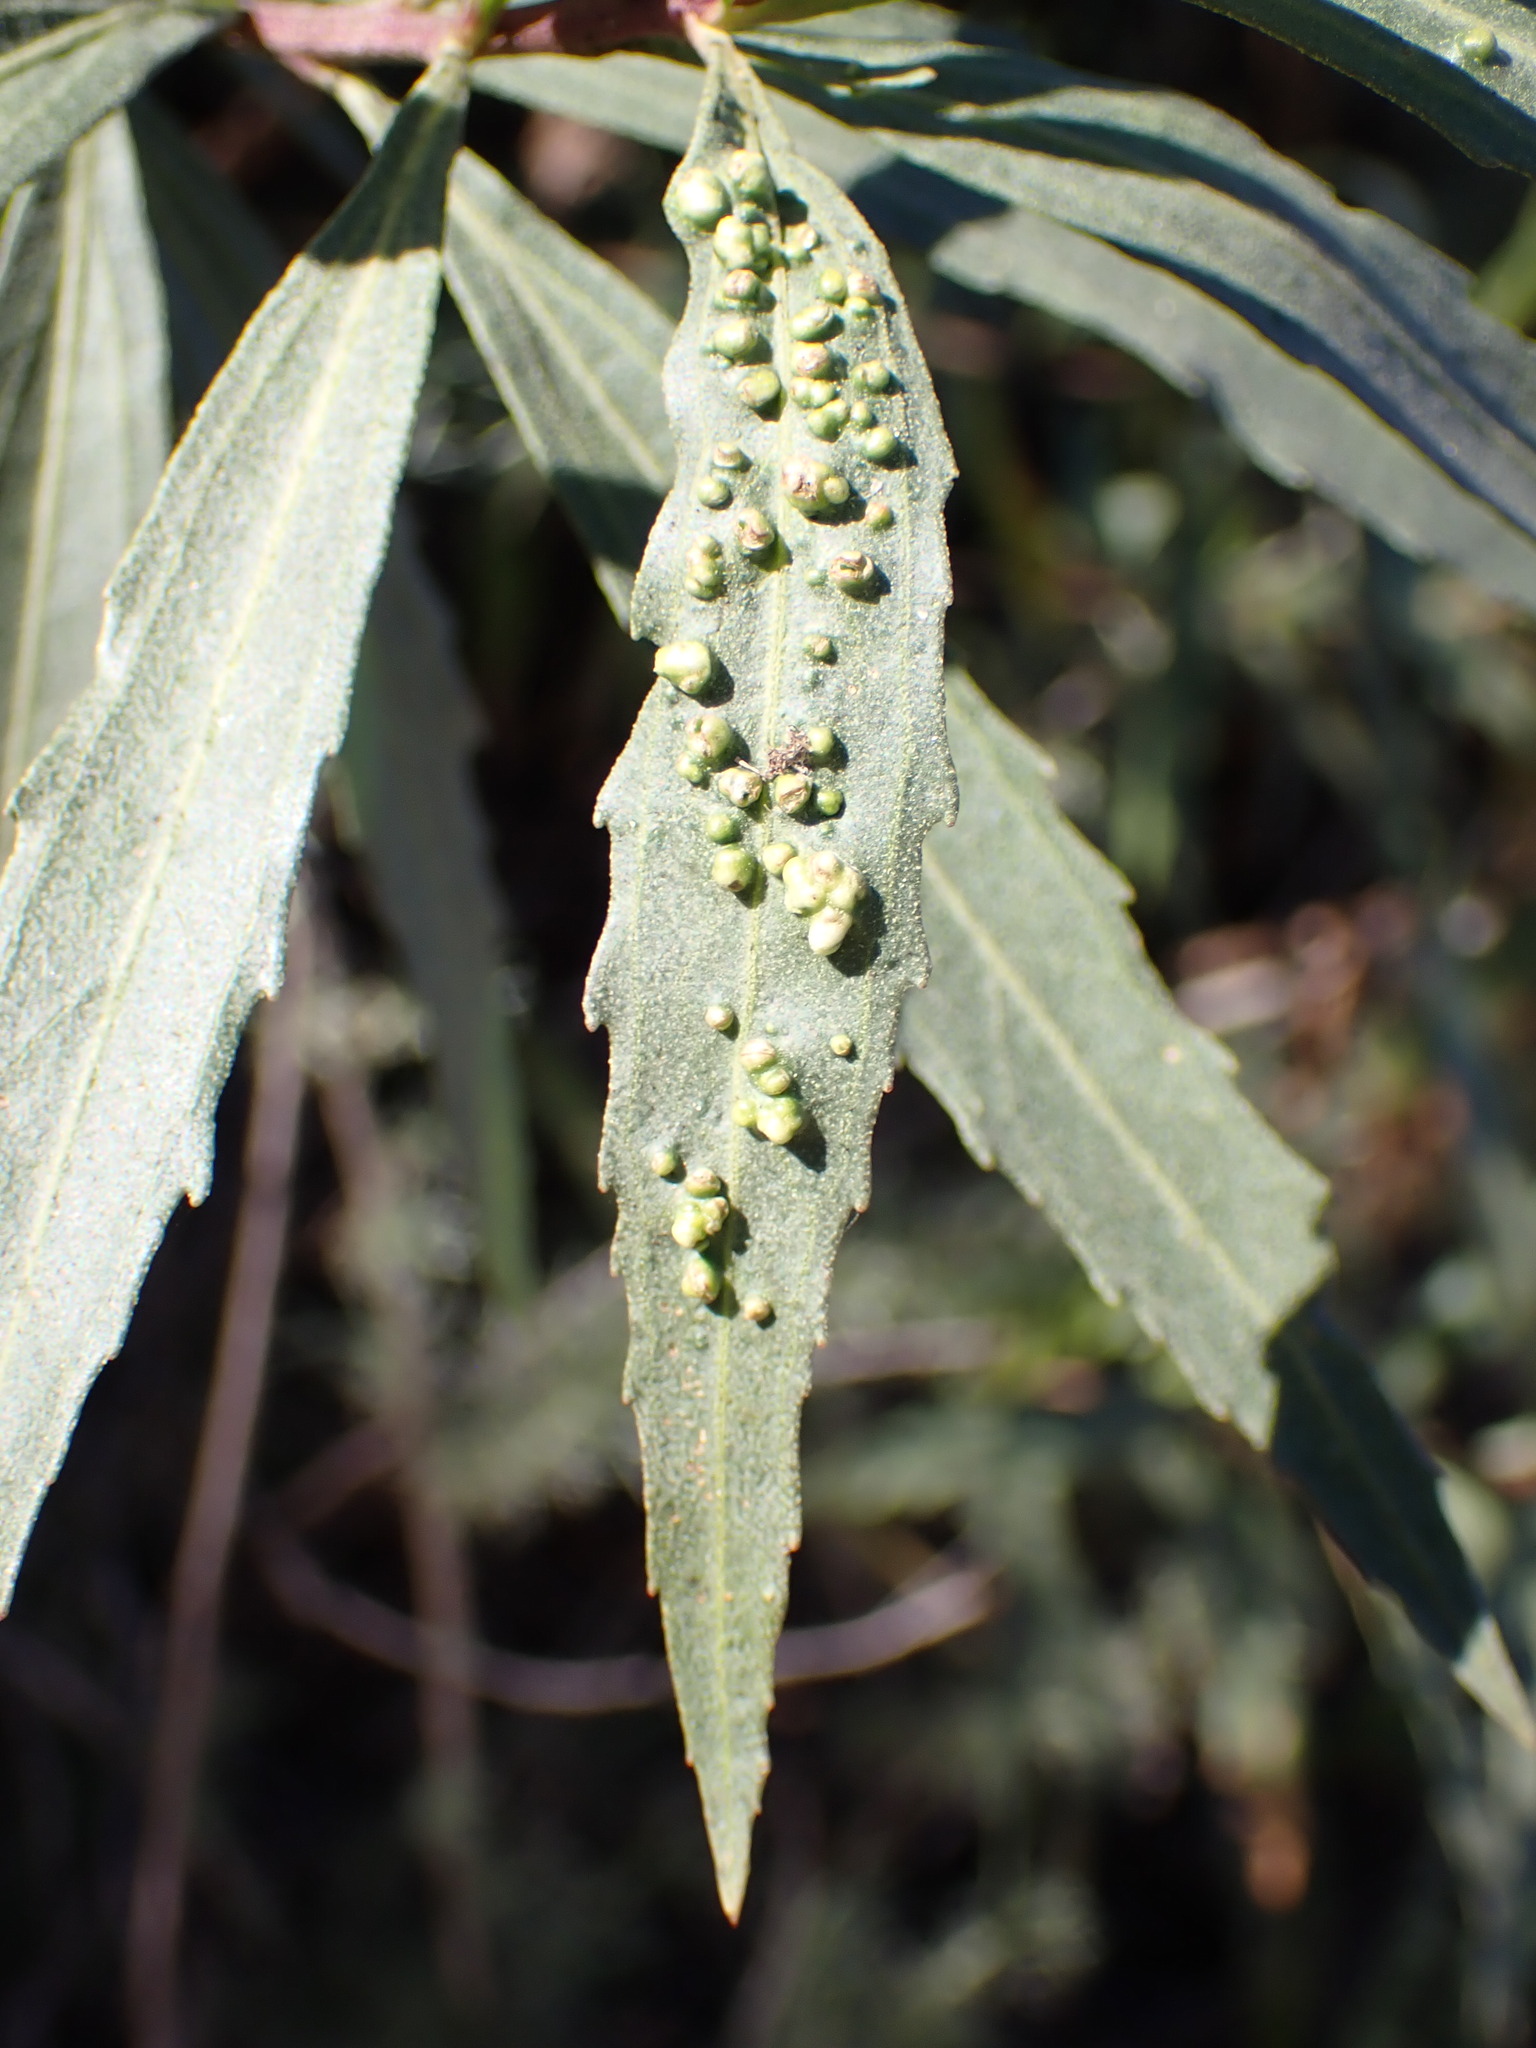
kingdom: Animalia
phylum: Arthropoda
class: Arachnida
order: Trombidiformes
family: Eriophyidae
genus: Aceria
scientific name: Aceria
